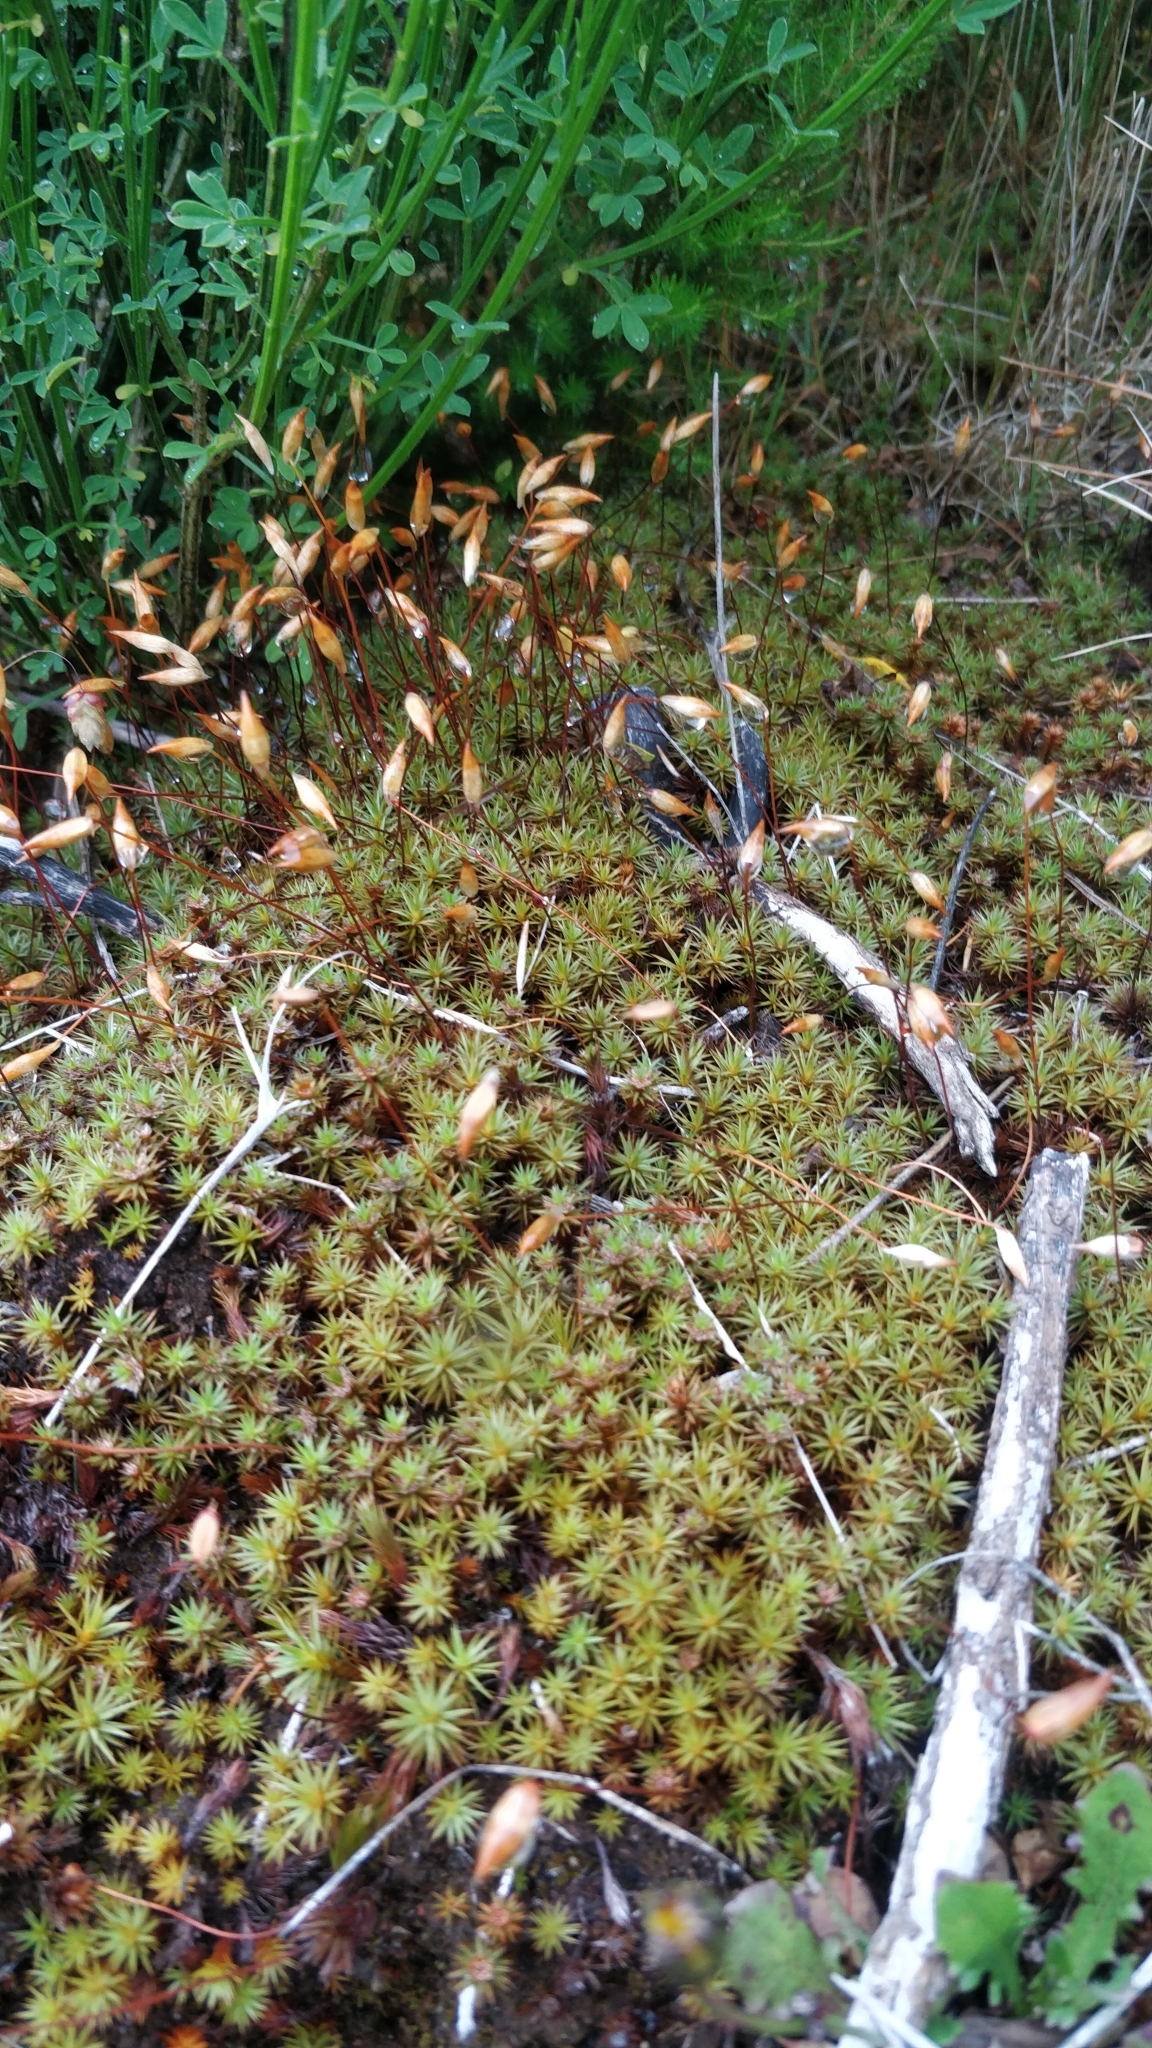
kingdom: Plantae
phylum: Bryophyta
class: Polytrichopsida
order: Polytrichales
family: Polytrichaceae
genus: Polytrichum
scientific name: Polytrichum juniperinum
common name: Juniper haircap moss
